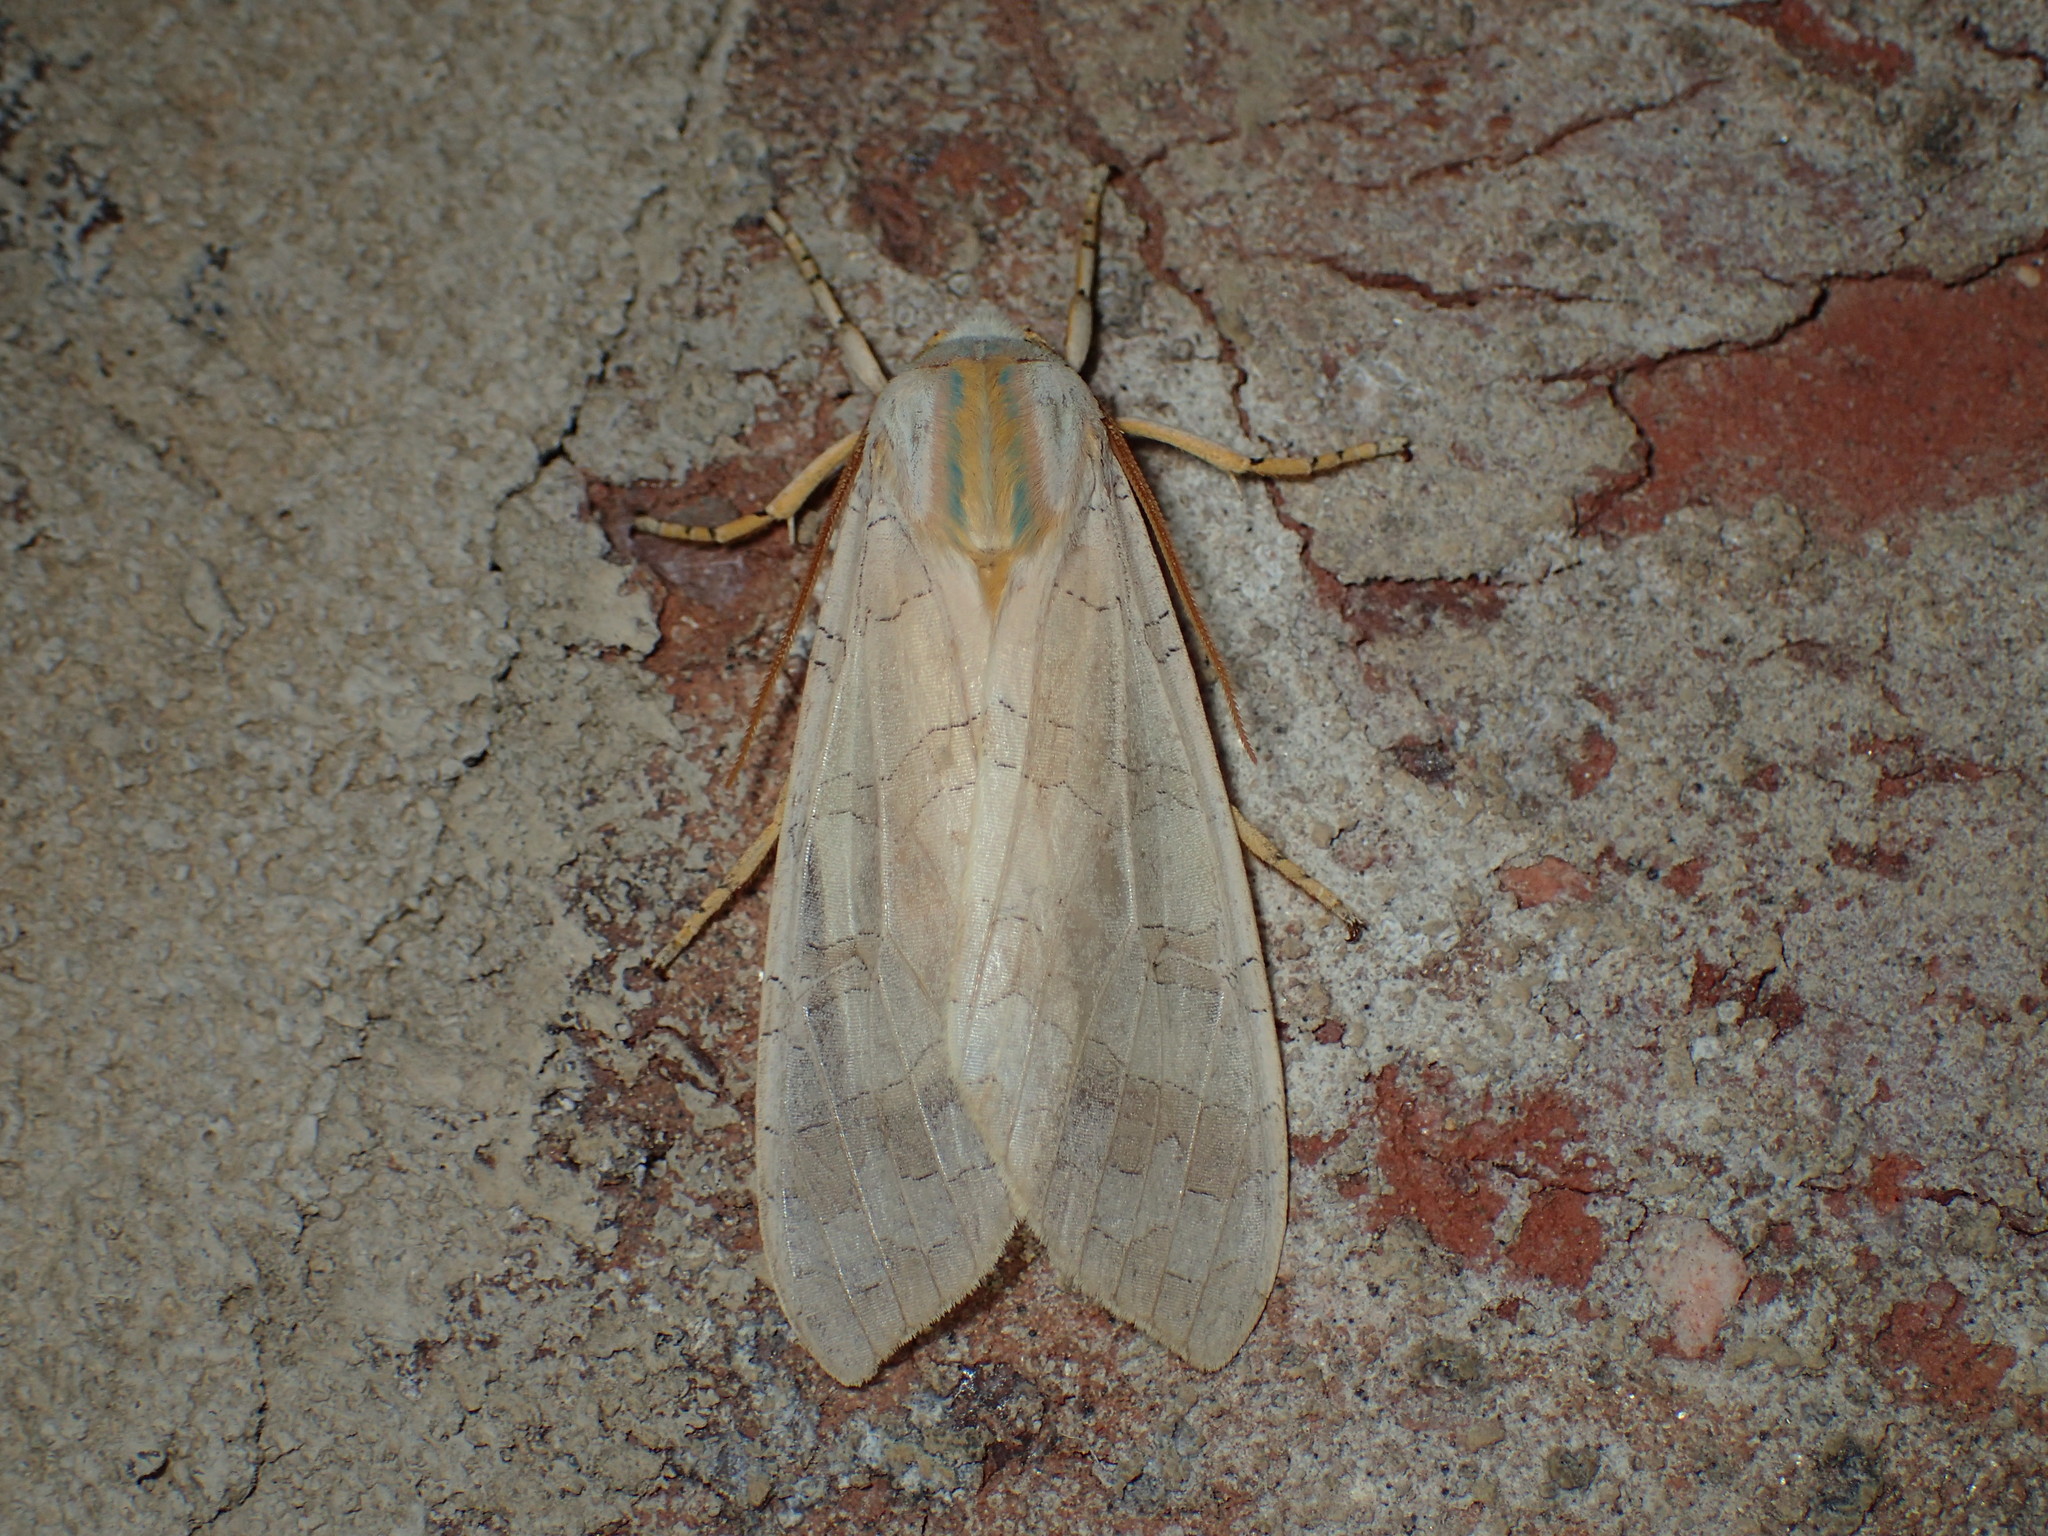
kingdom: Animalia
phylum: Arthropoda
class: Insecta
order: Lepidoptera
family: Erebidae
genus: Halysidota
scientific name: Halysidota
